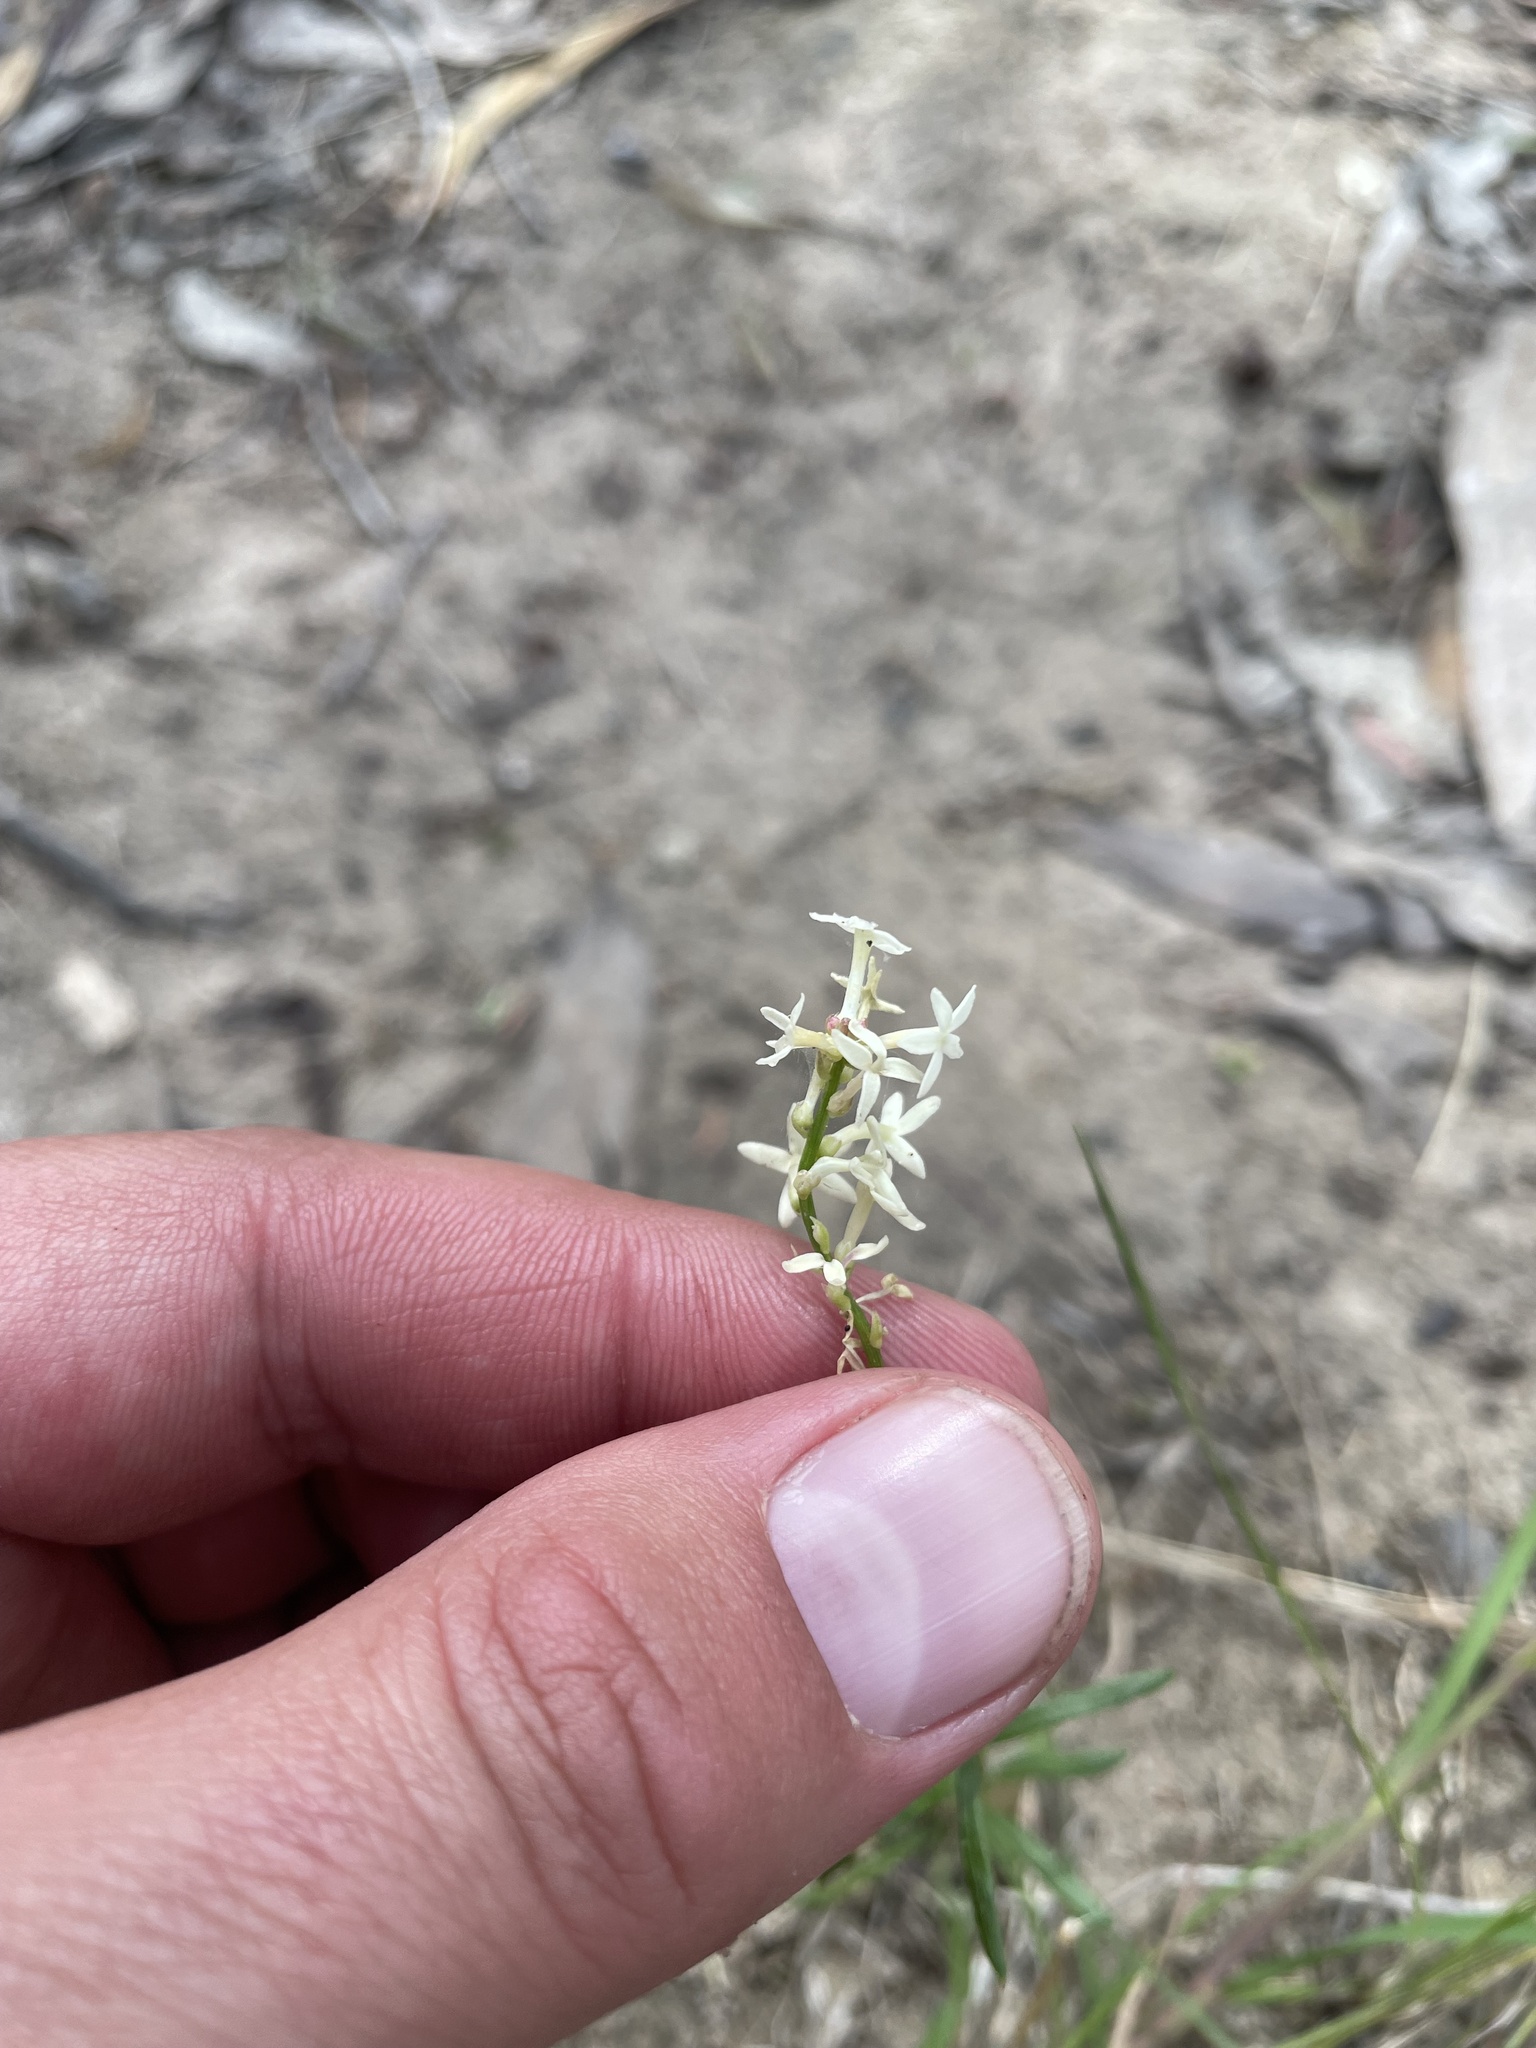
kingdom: Plantae
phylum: Tracheophyta
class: Magnoliopsida
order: Celastrales
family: Celastraceae
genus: Stackhousia
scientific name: Stackhousia monogyna
